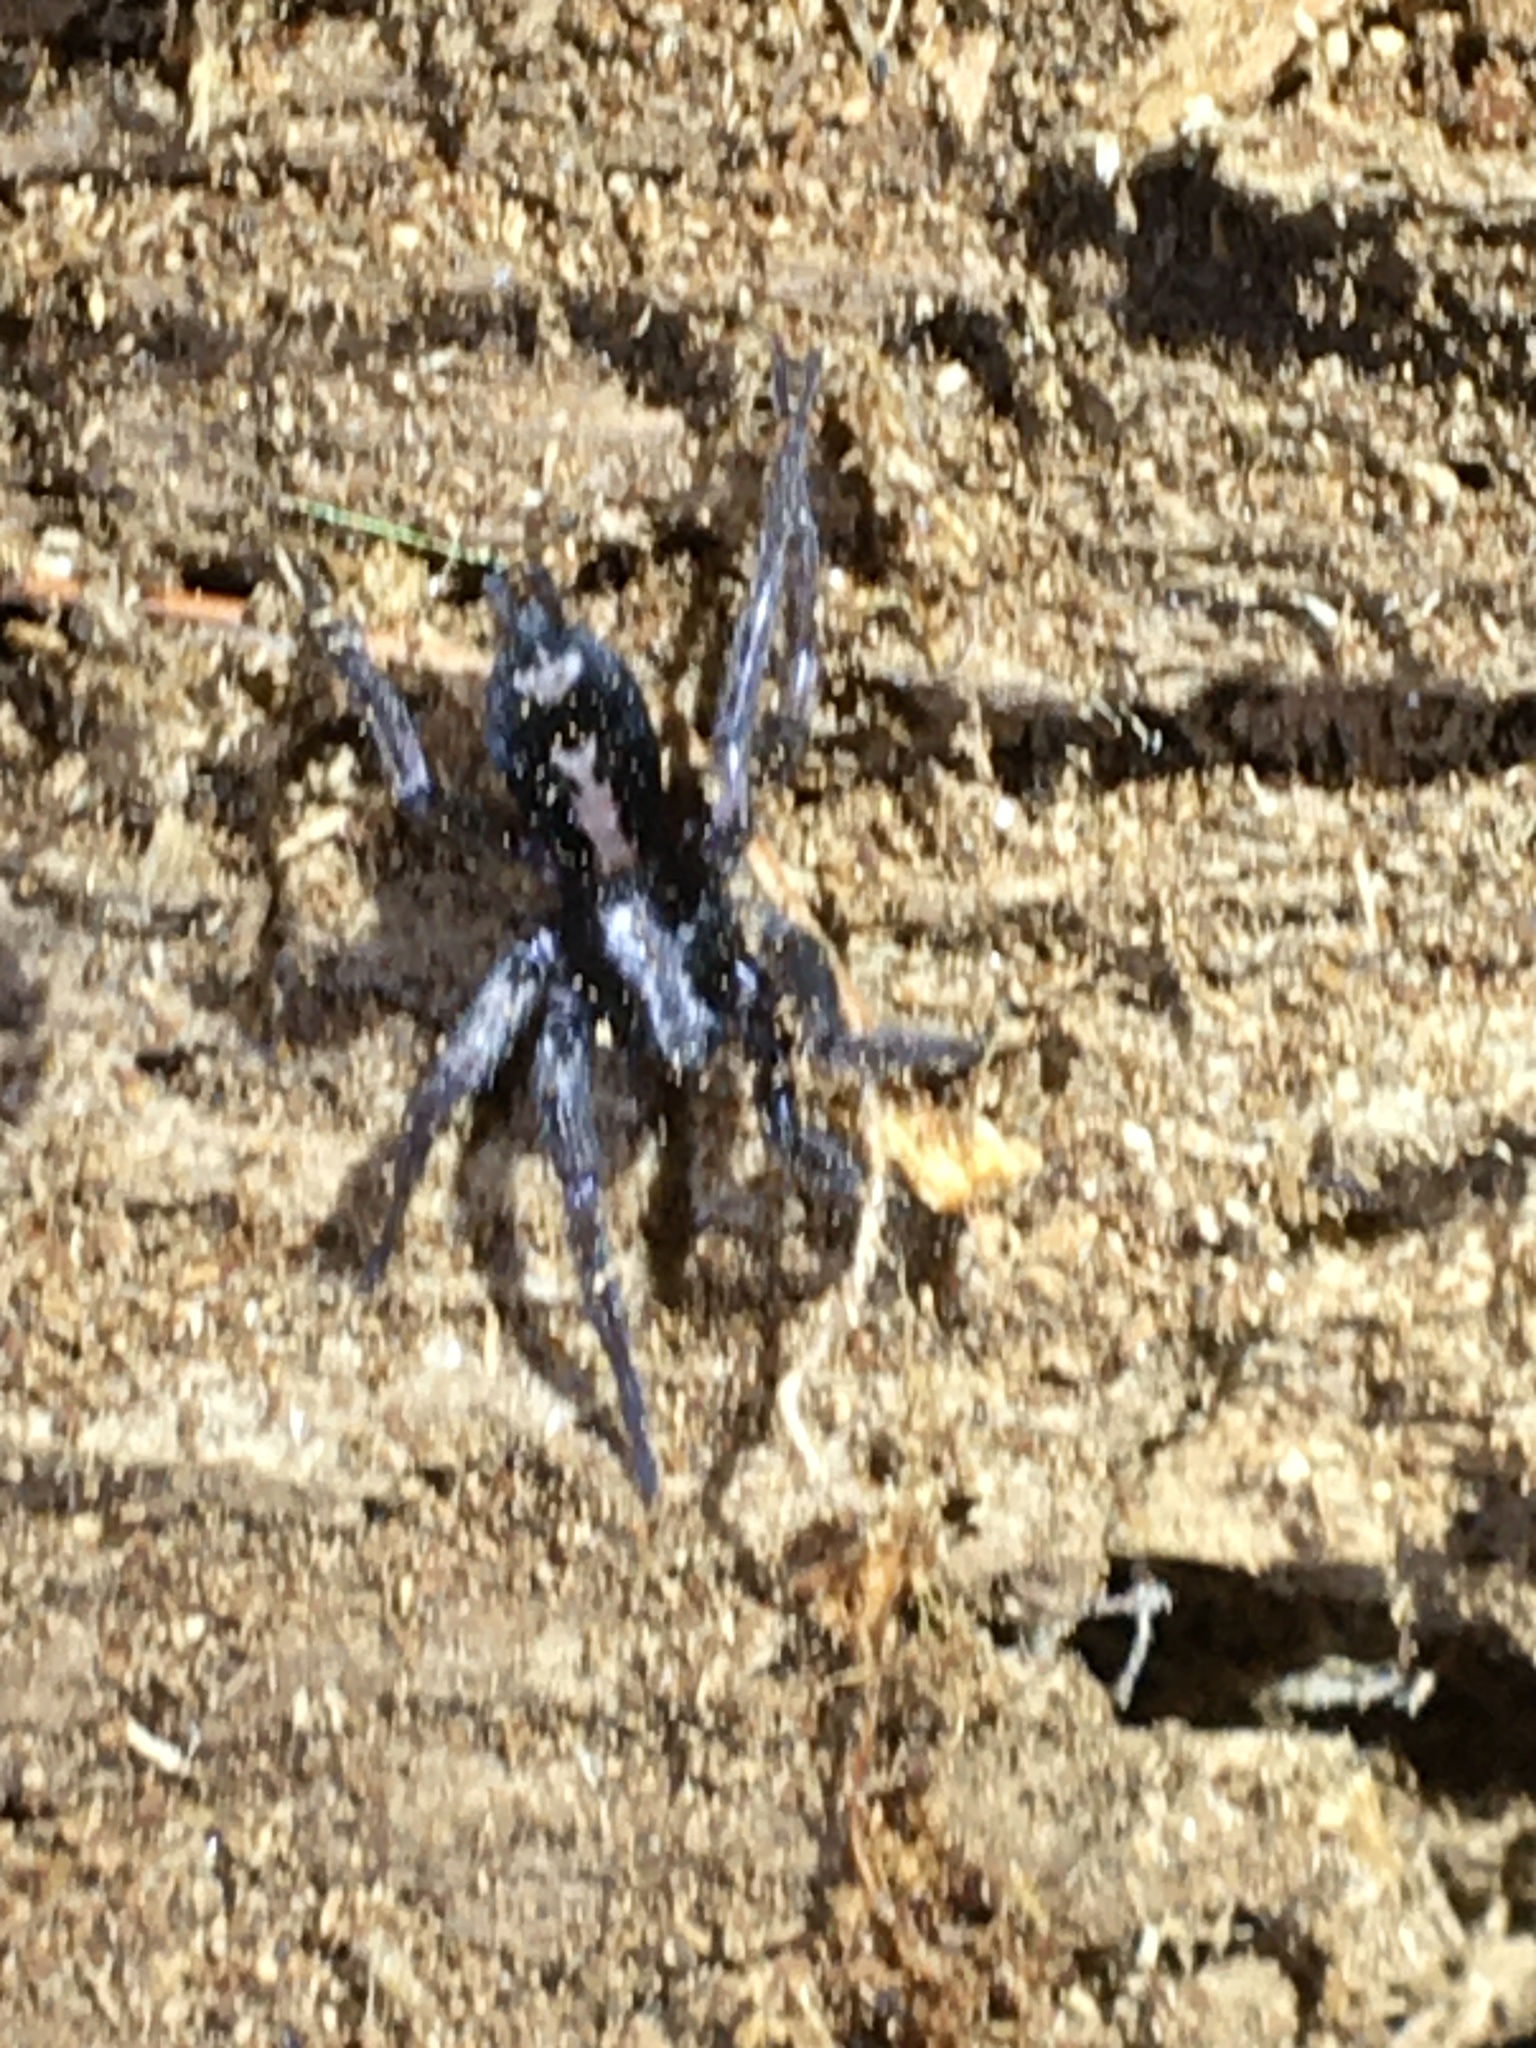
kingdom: Animalia
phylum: Arthropoda
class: Arachnida
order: Araneae
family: Gnaphosidae
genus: Herpyllus
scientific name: Herpyllus ecclesiasticus
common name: Eastern parson spider
